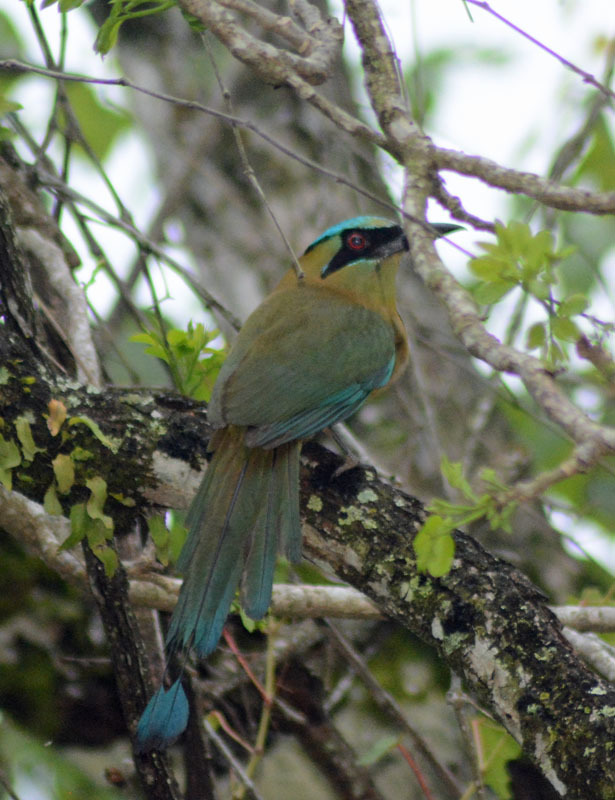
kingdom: Animalia
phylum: Chordata
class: Aves
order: Coraciiformes
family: Momotidae
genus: Momotus
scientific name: Momotus coeruliceps
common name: Blue-capped motmot
